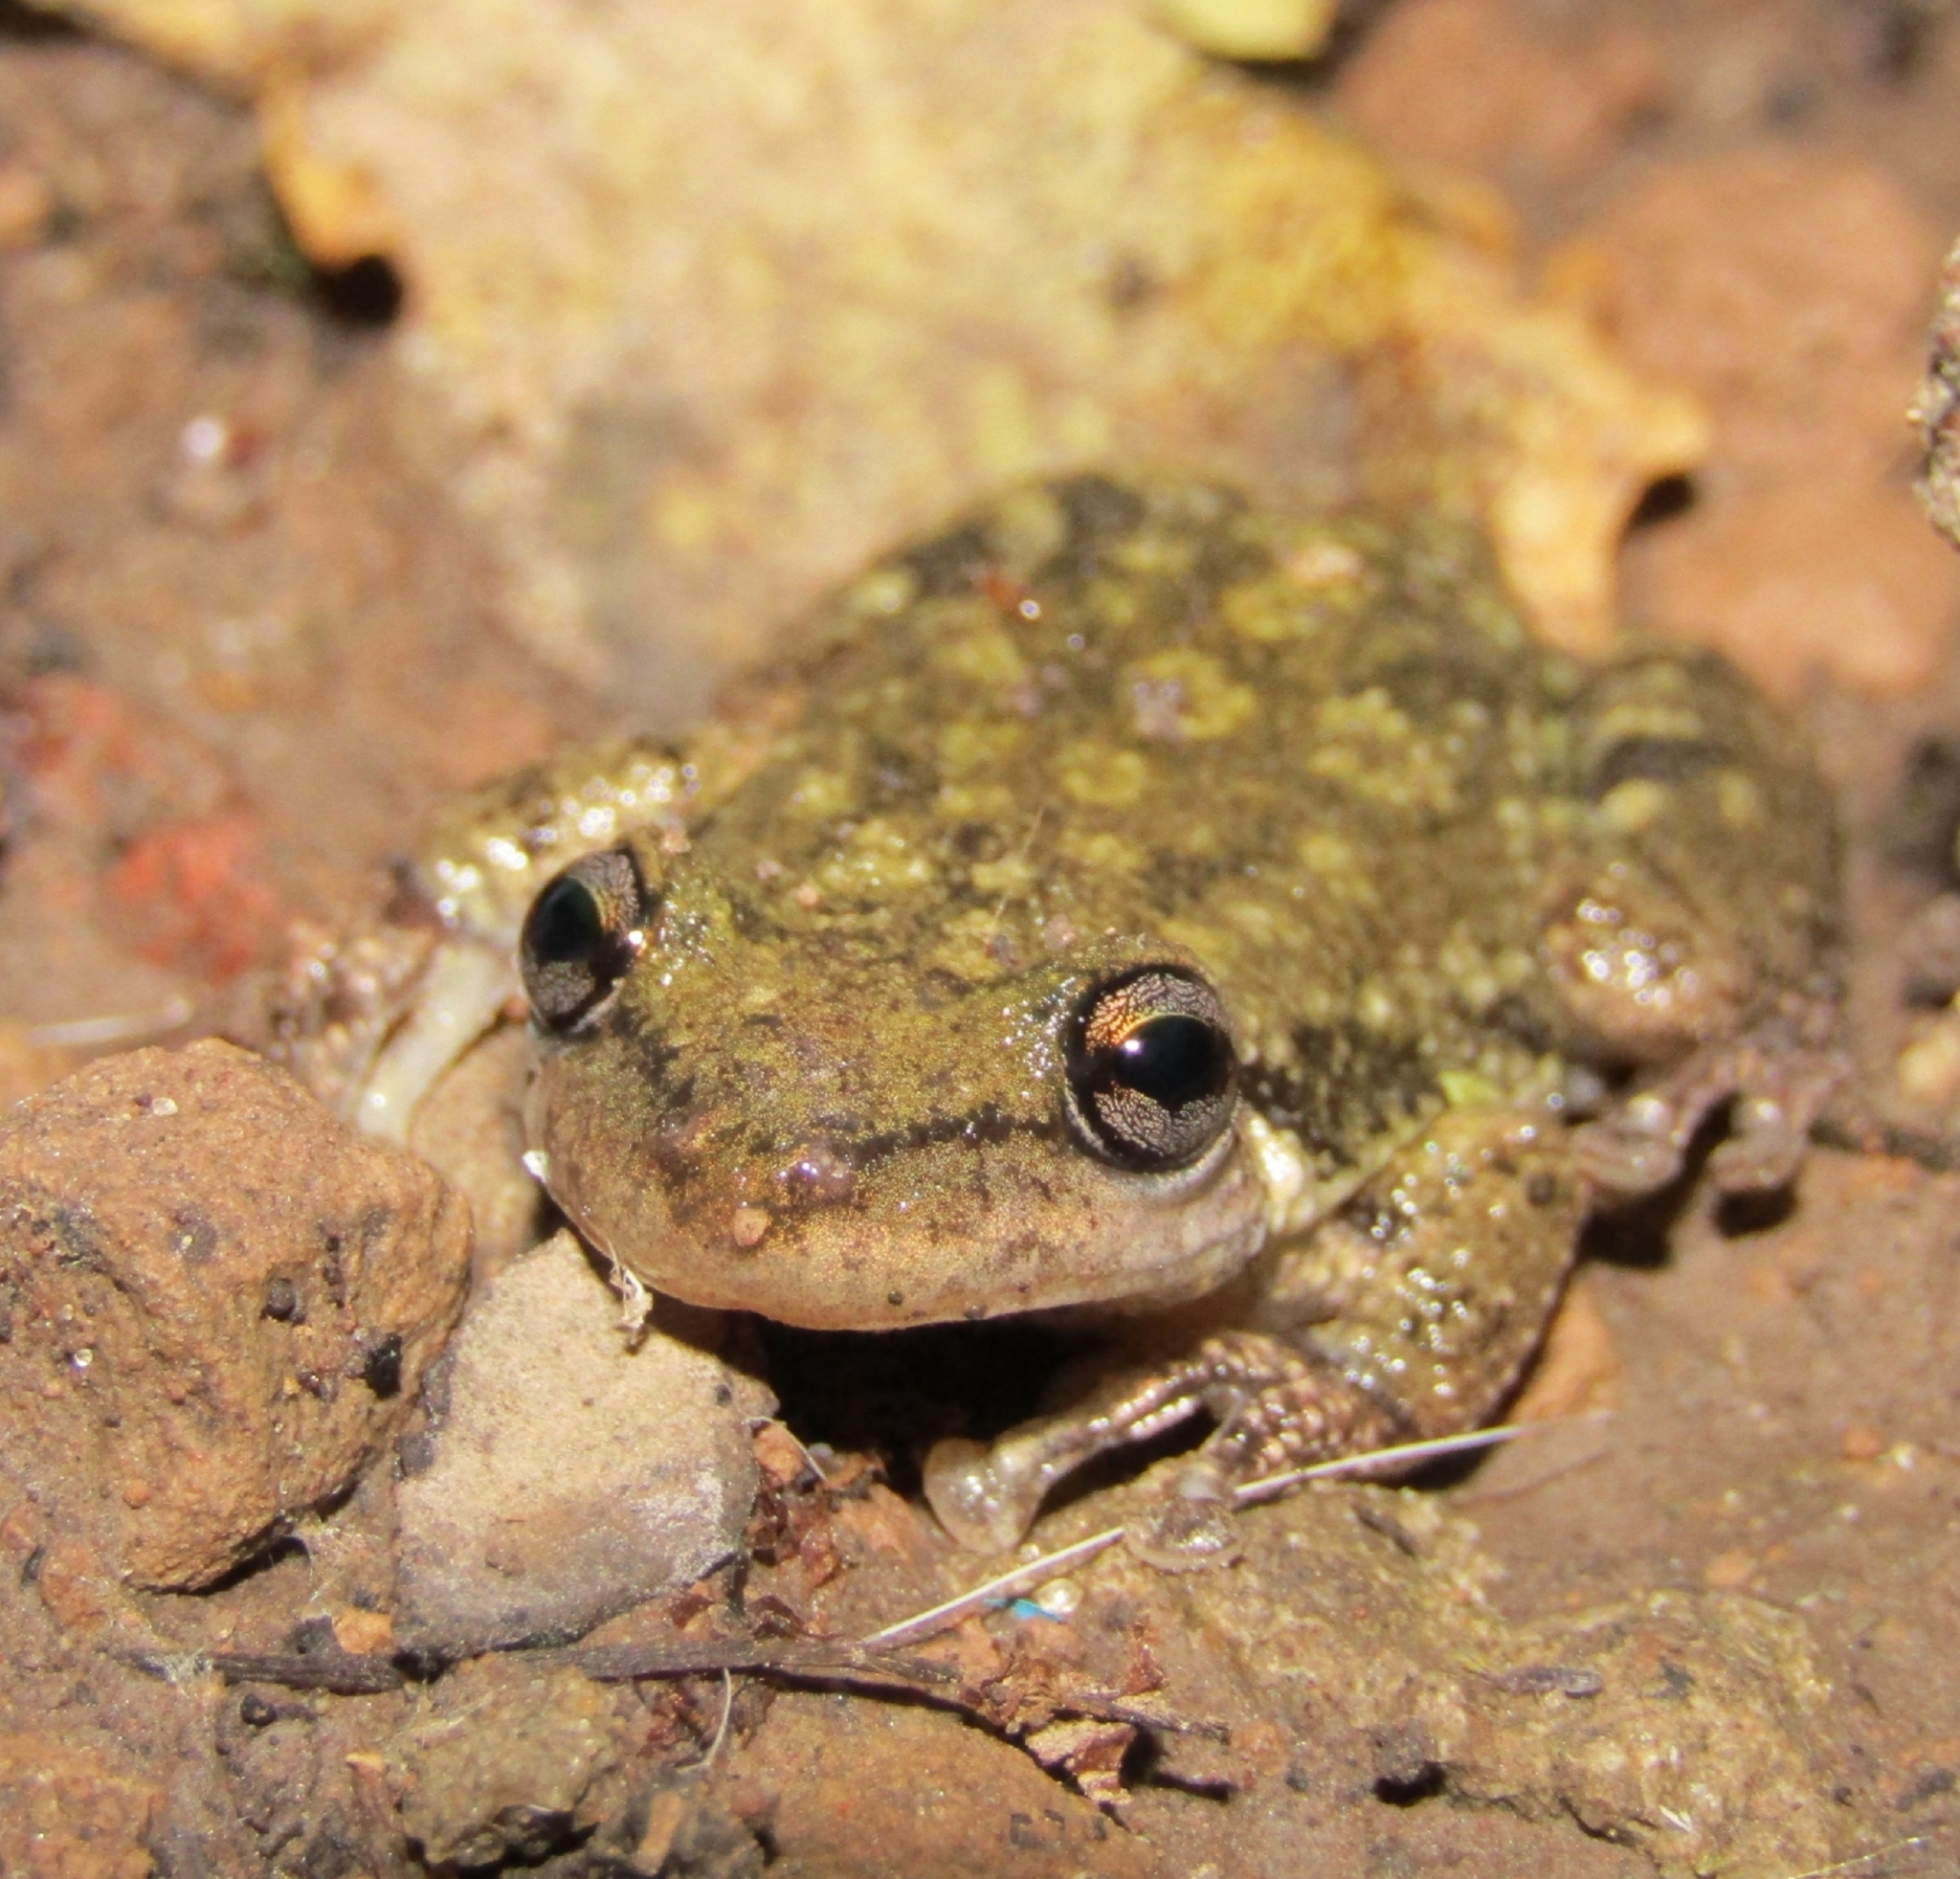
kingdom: Animalia
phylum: Chordata
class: Amphibia
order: Anura
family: Hylidae
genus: Scinax
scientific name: Scinax granulatus
